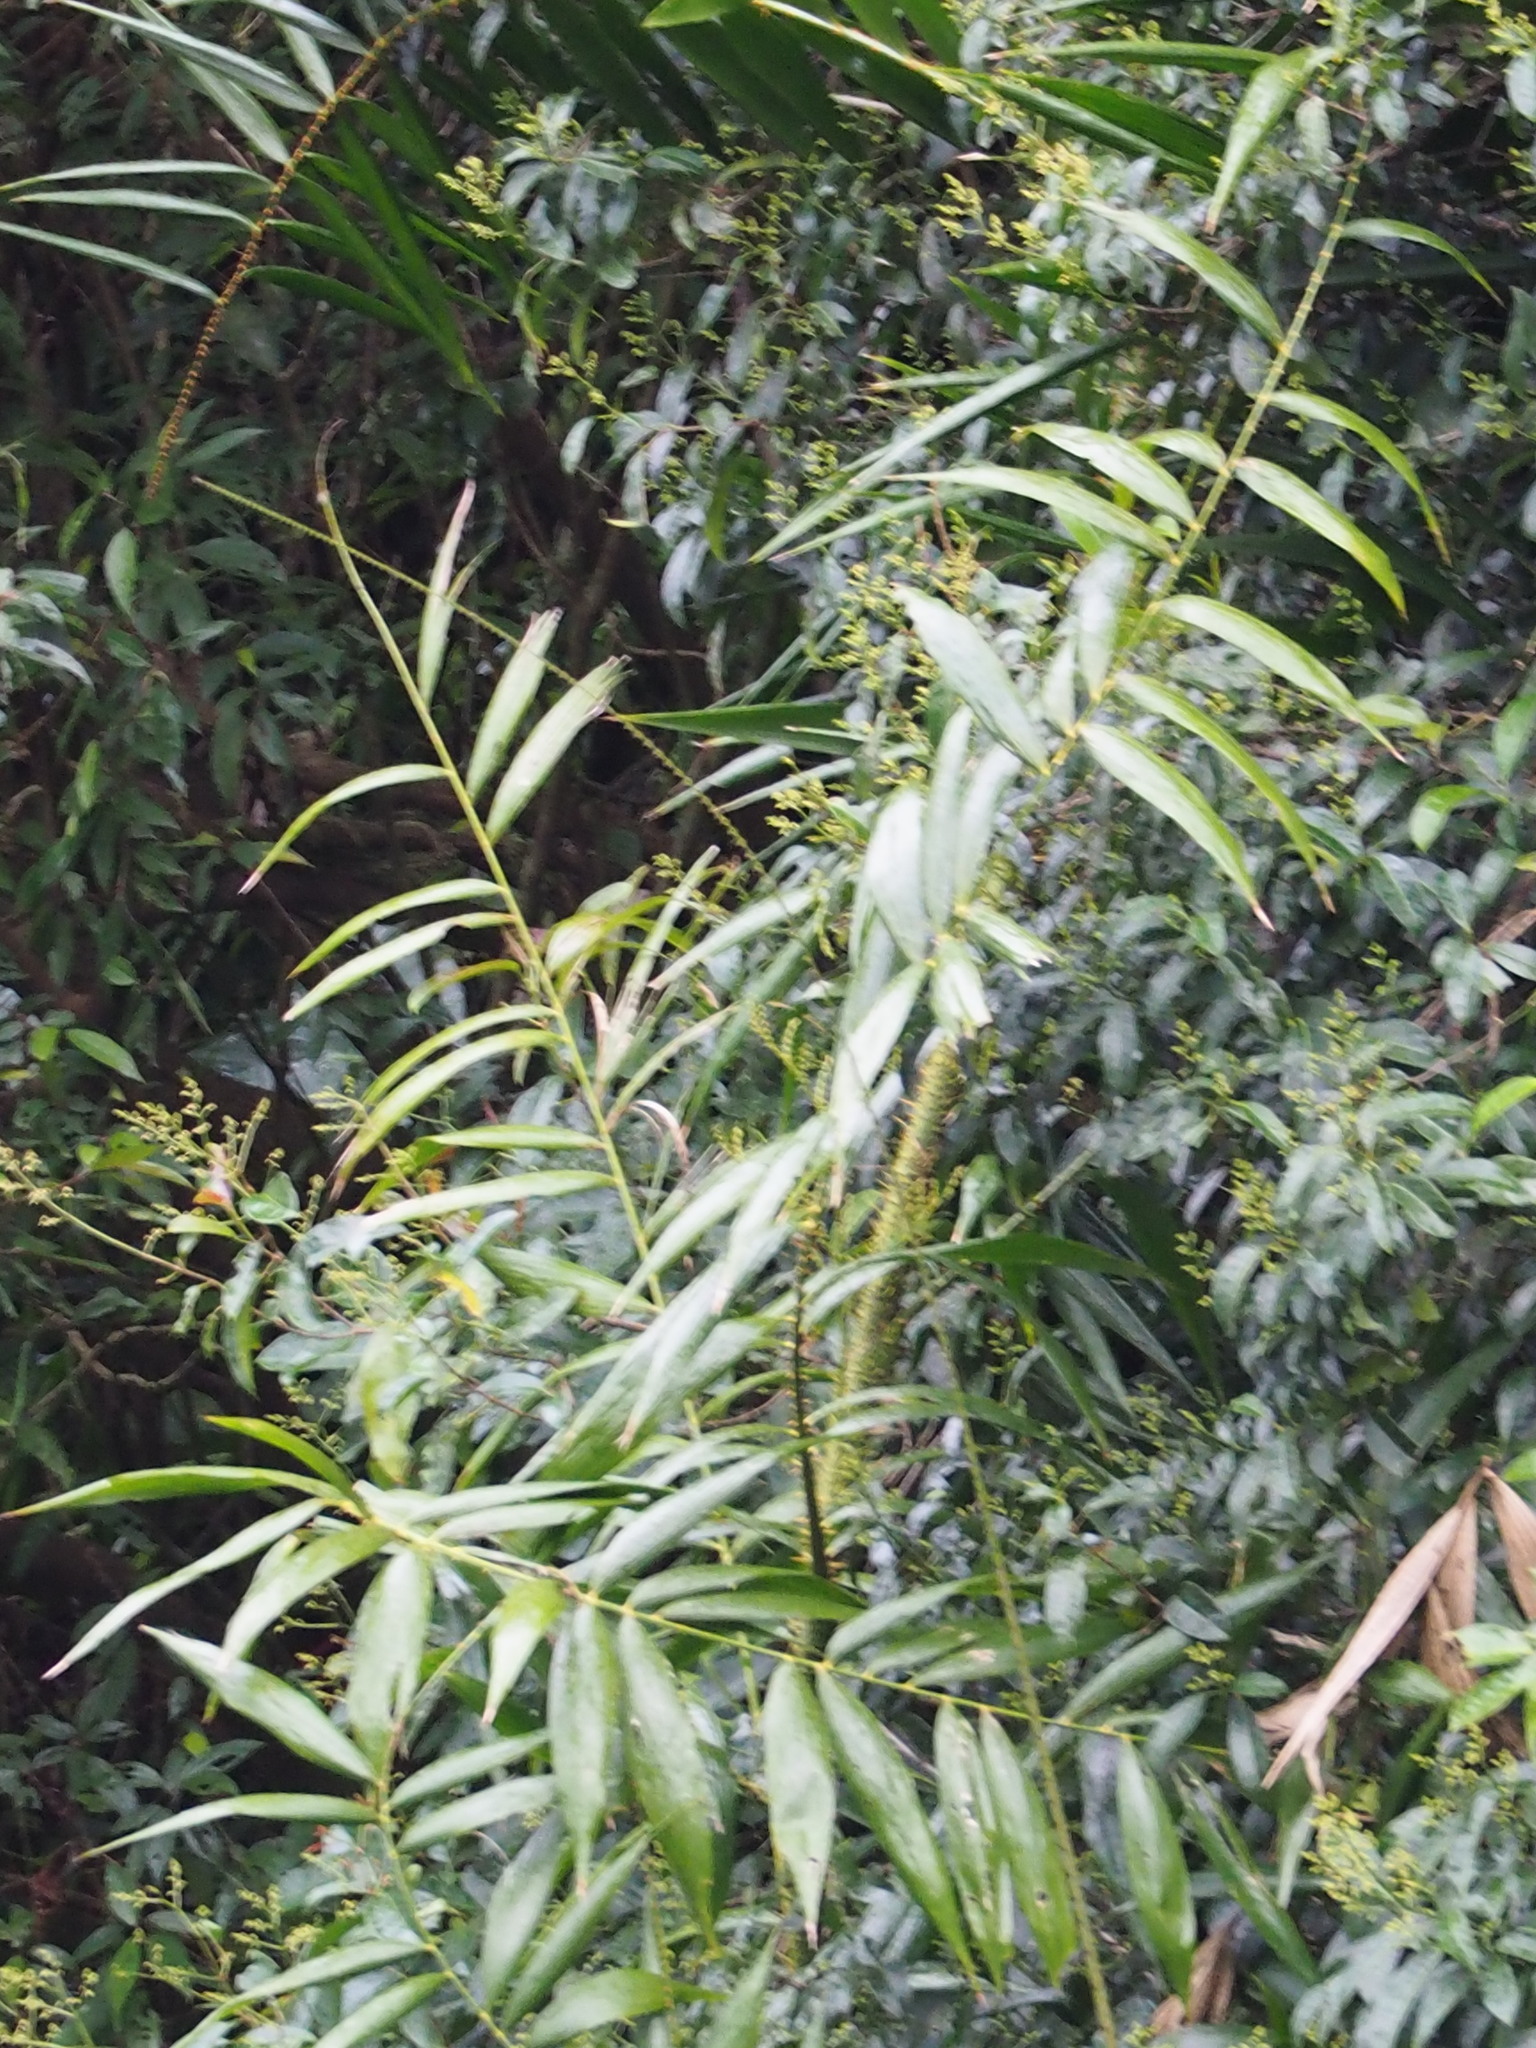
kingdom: Plantae
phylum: Tracheophyta
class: Liliopsida
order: Arecales
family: Arecaceae
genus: Calamus
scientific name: Calamus formosanus
